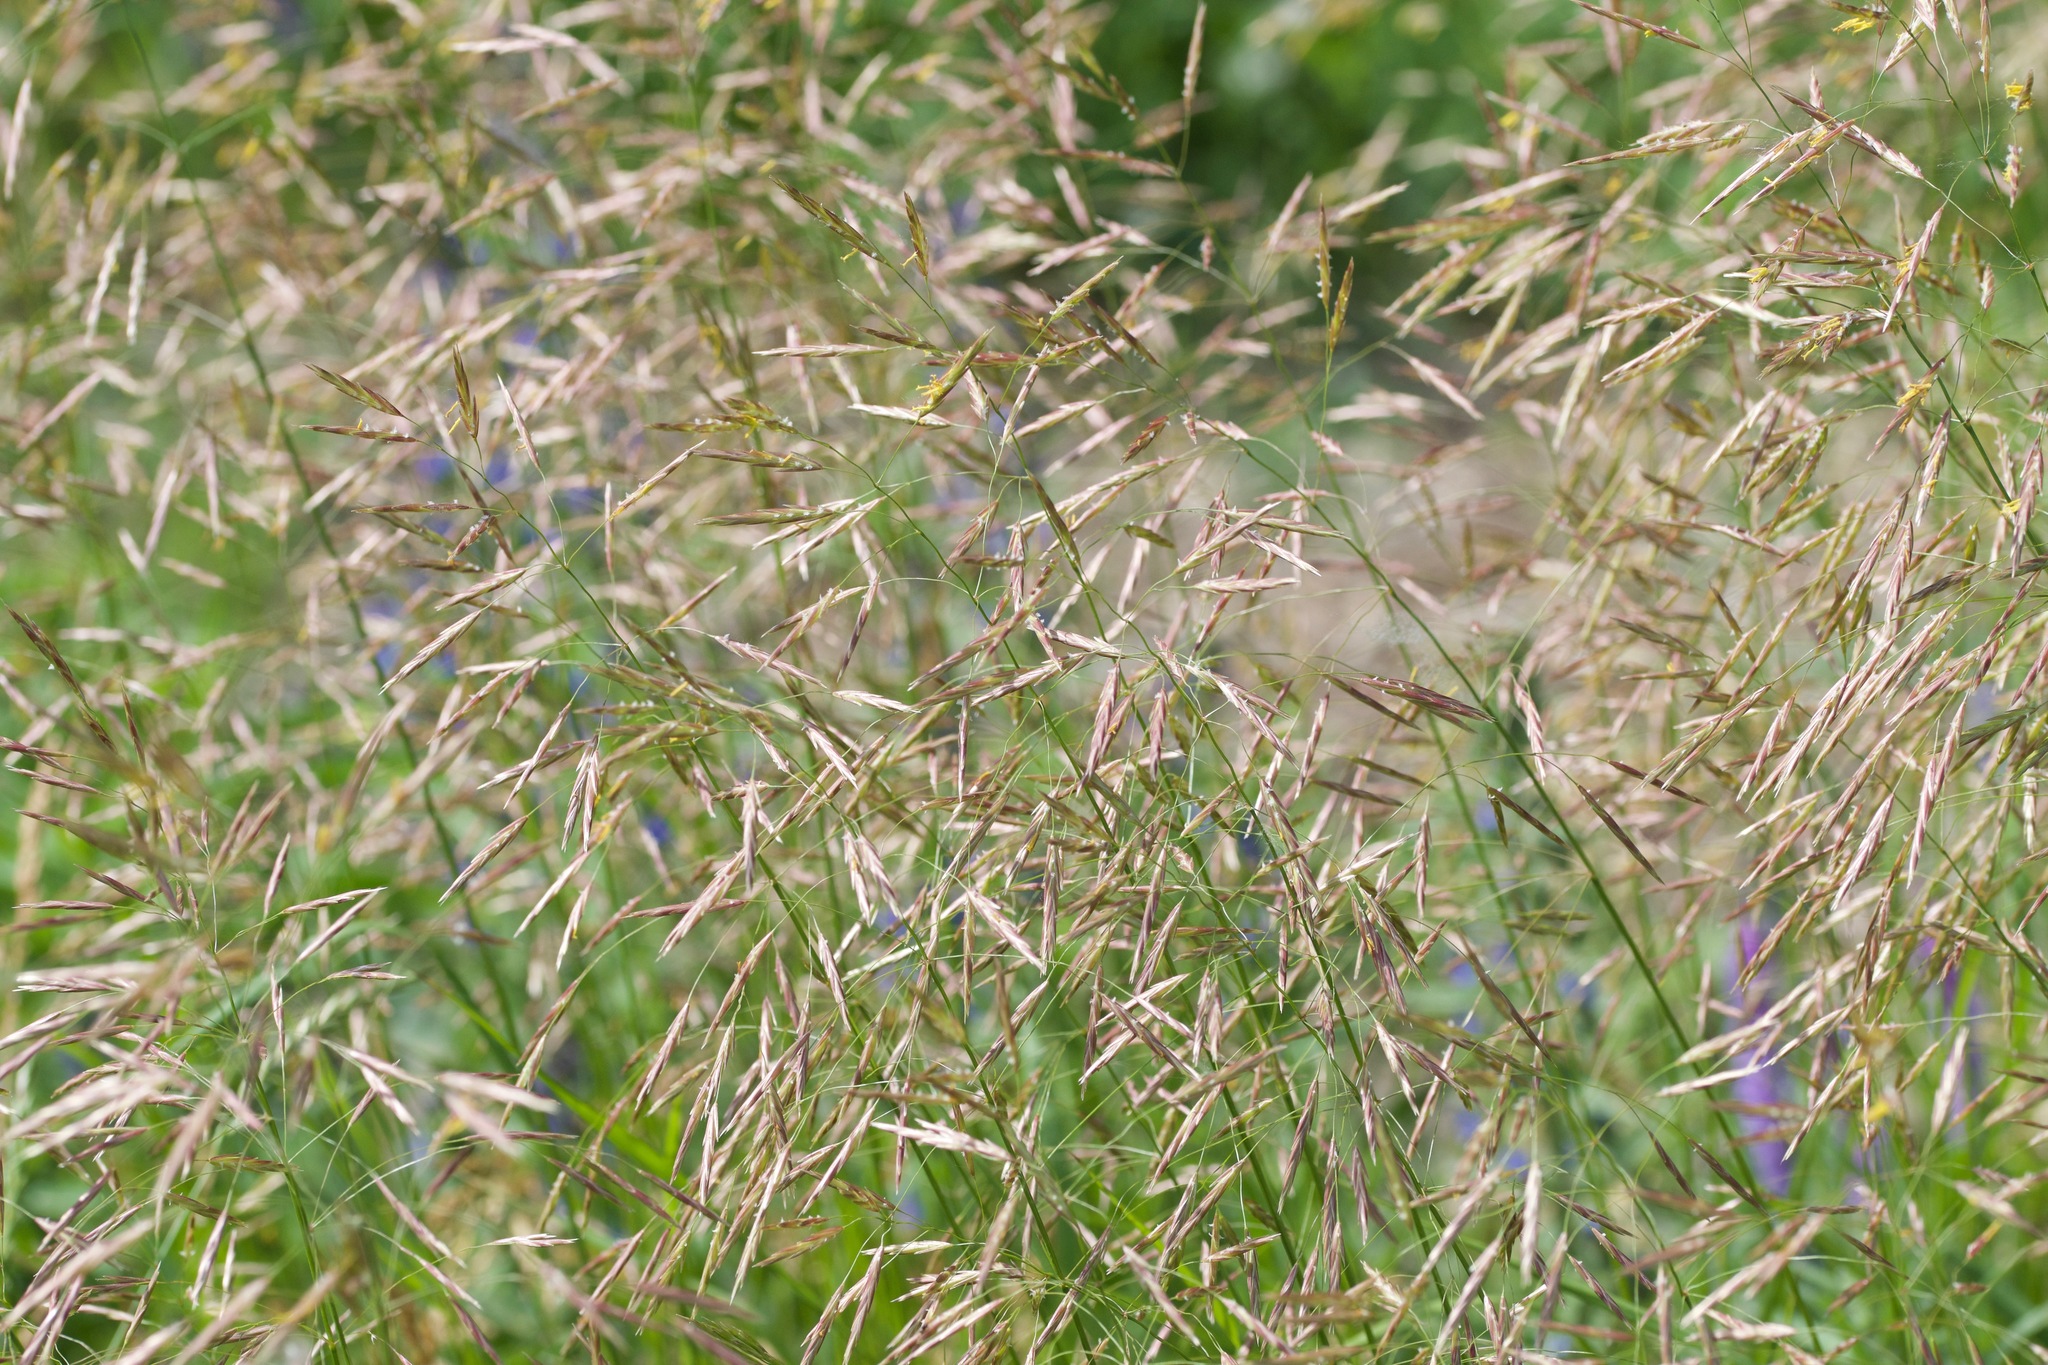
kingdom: Plantae
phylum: Tracheophyta
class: Liliopsida
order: Poales
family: Poaceae
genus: Bromus
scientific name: Bromus inermis
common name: Smooth brome
